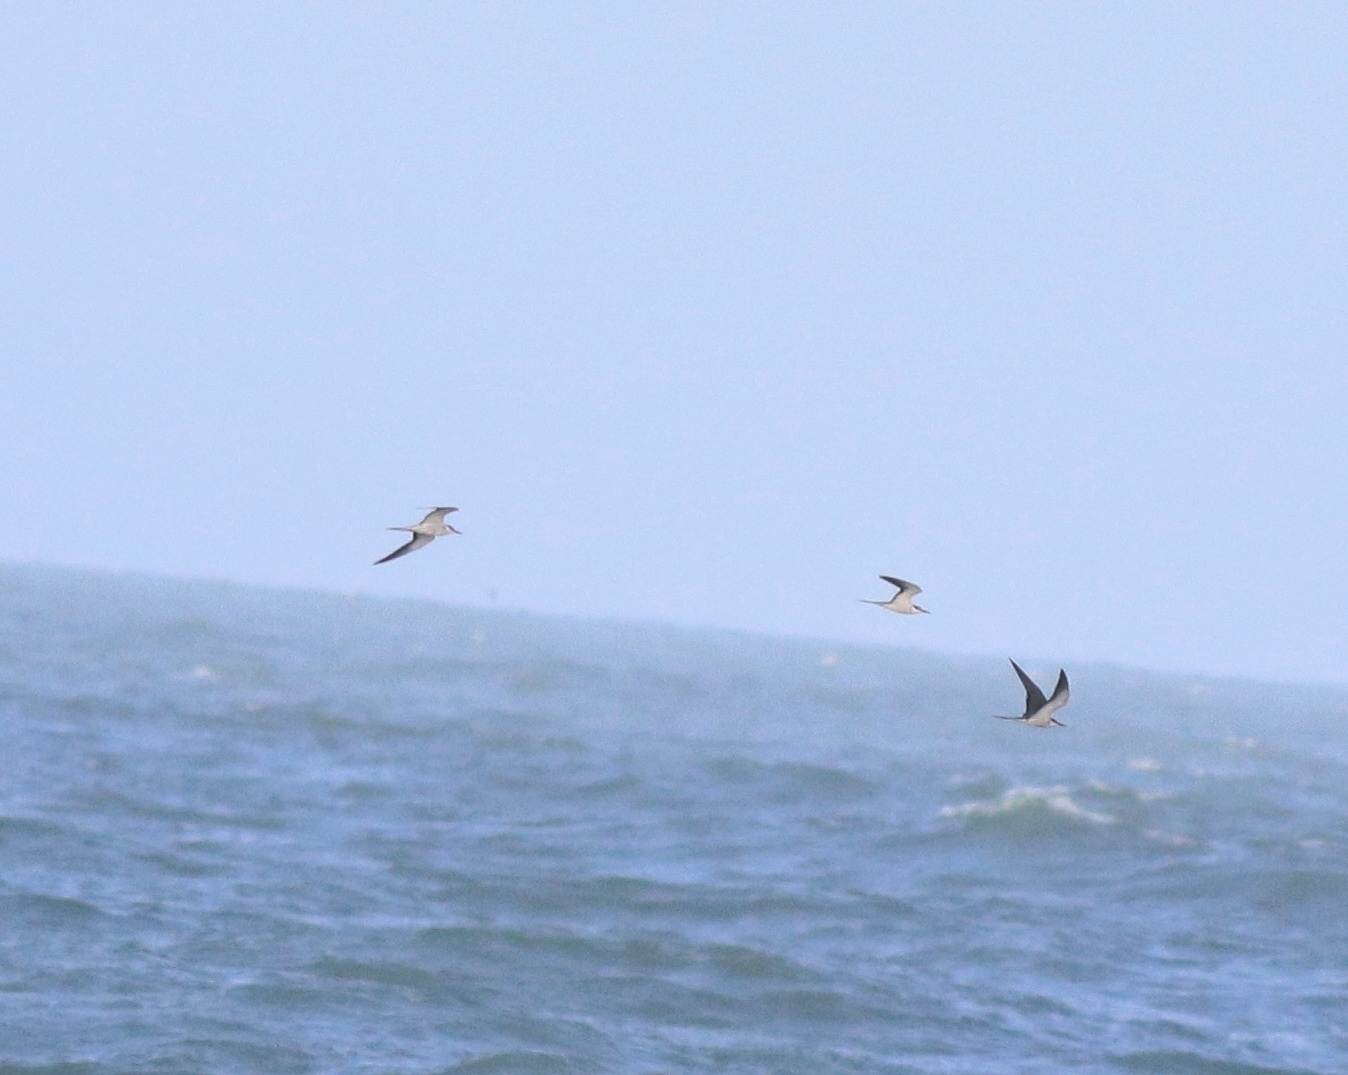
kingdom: Animalia
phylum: Chordata
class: Aves
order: Charadriiformes
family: Laridae
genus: Onychoprion
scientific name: Onychoprion anaethetus
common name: Bridled tern
